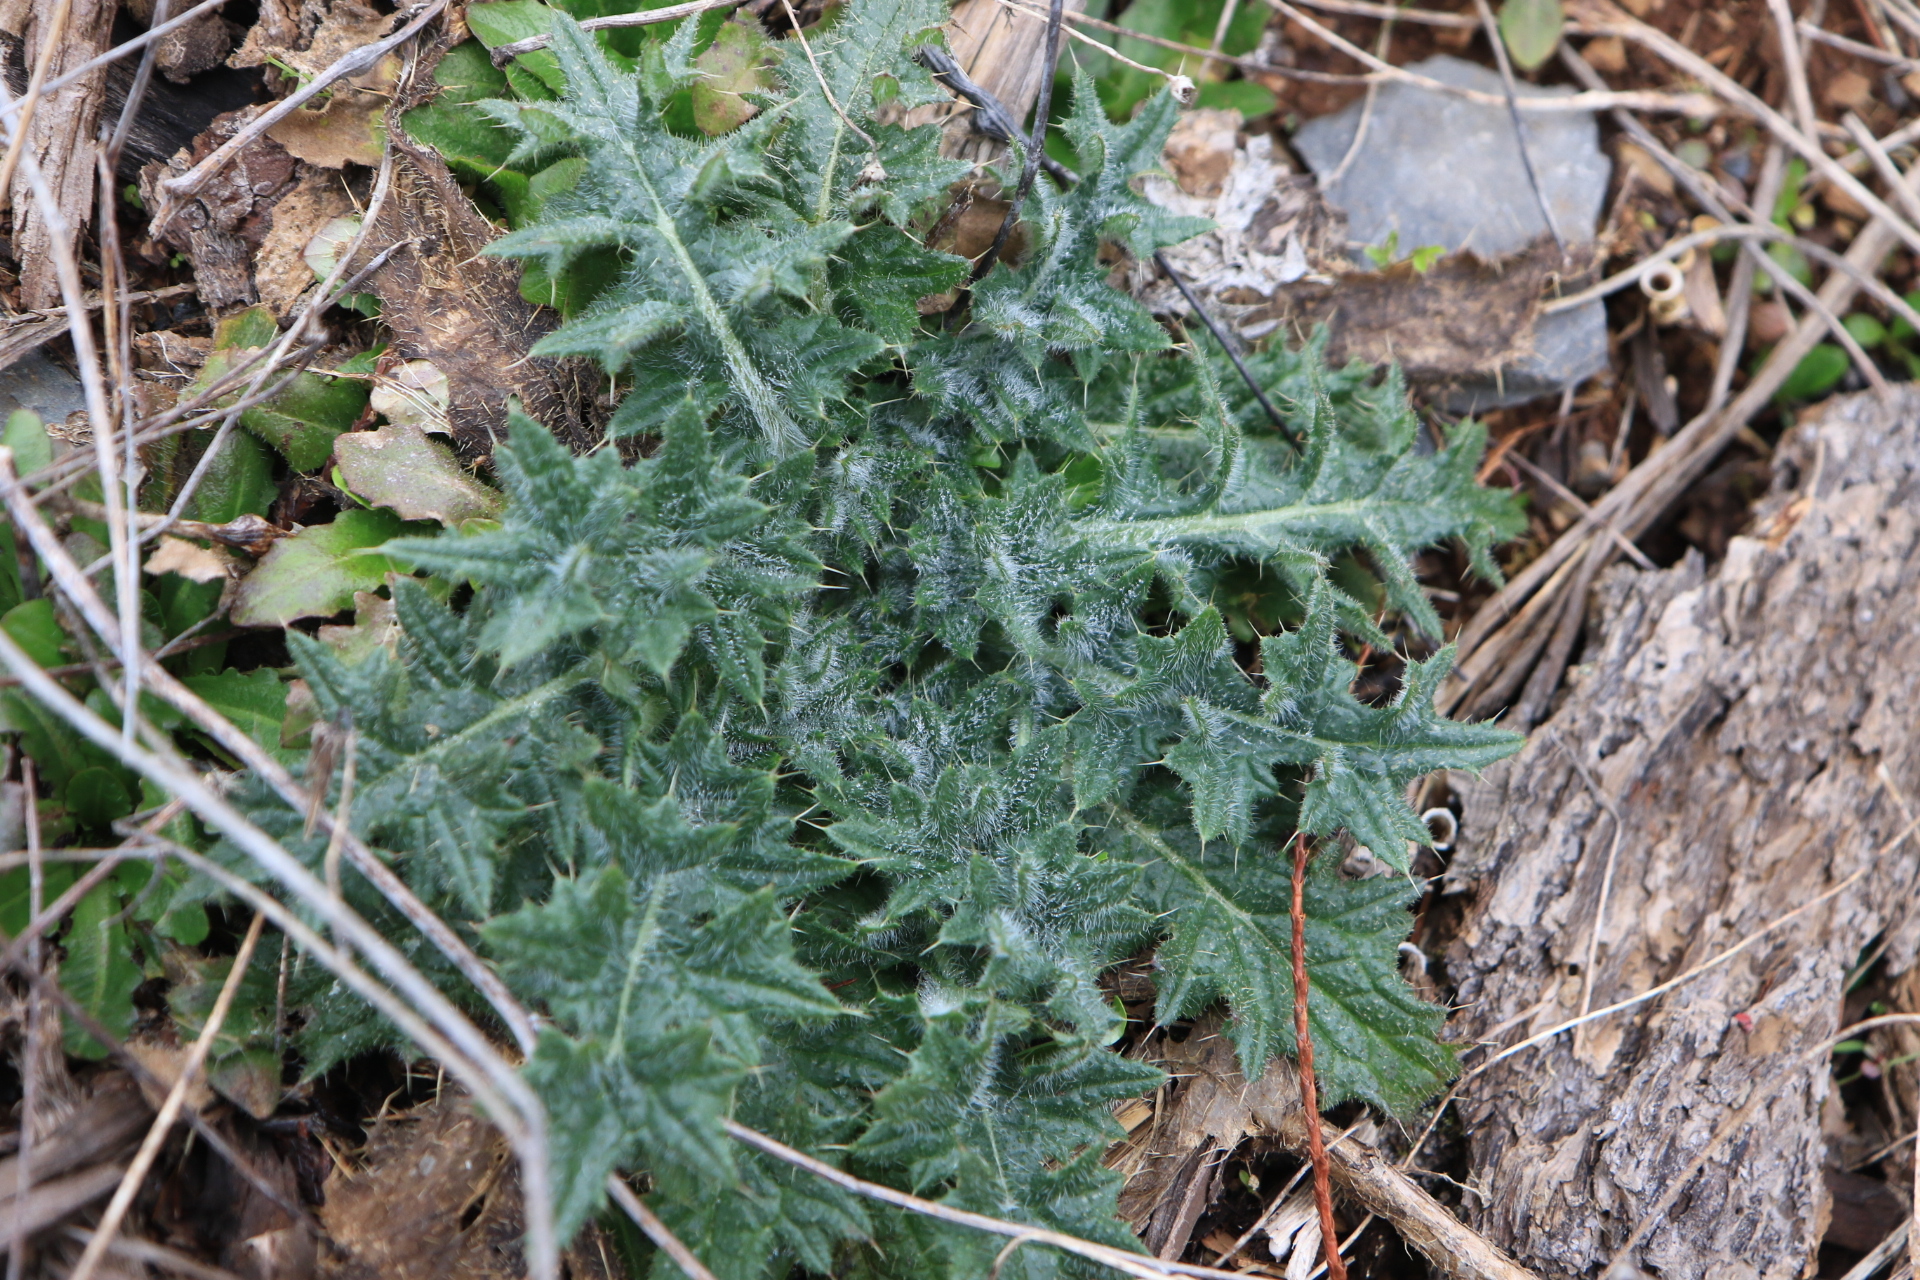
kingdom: Plantae
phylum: Tracheophyta
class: Magnoliopsida
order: Asterales
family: Asteraceae
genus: Cirsium
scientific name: Cirsium vulgare
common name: Bull thistle
